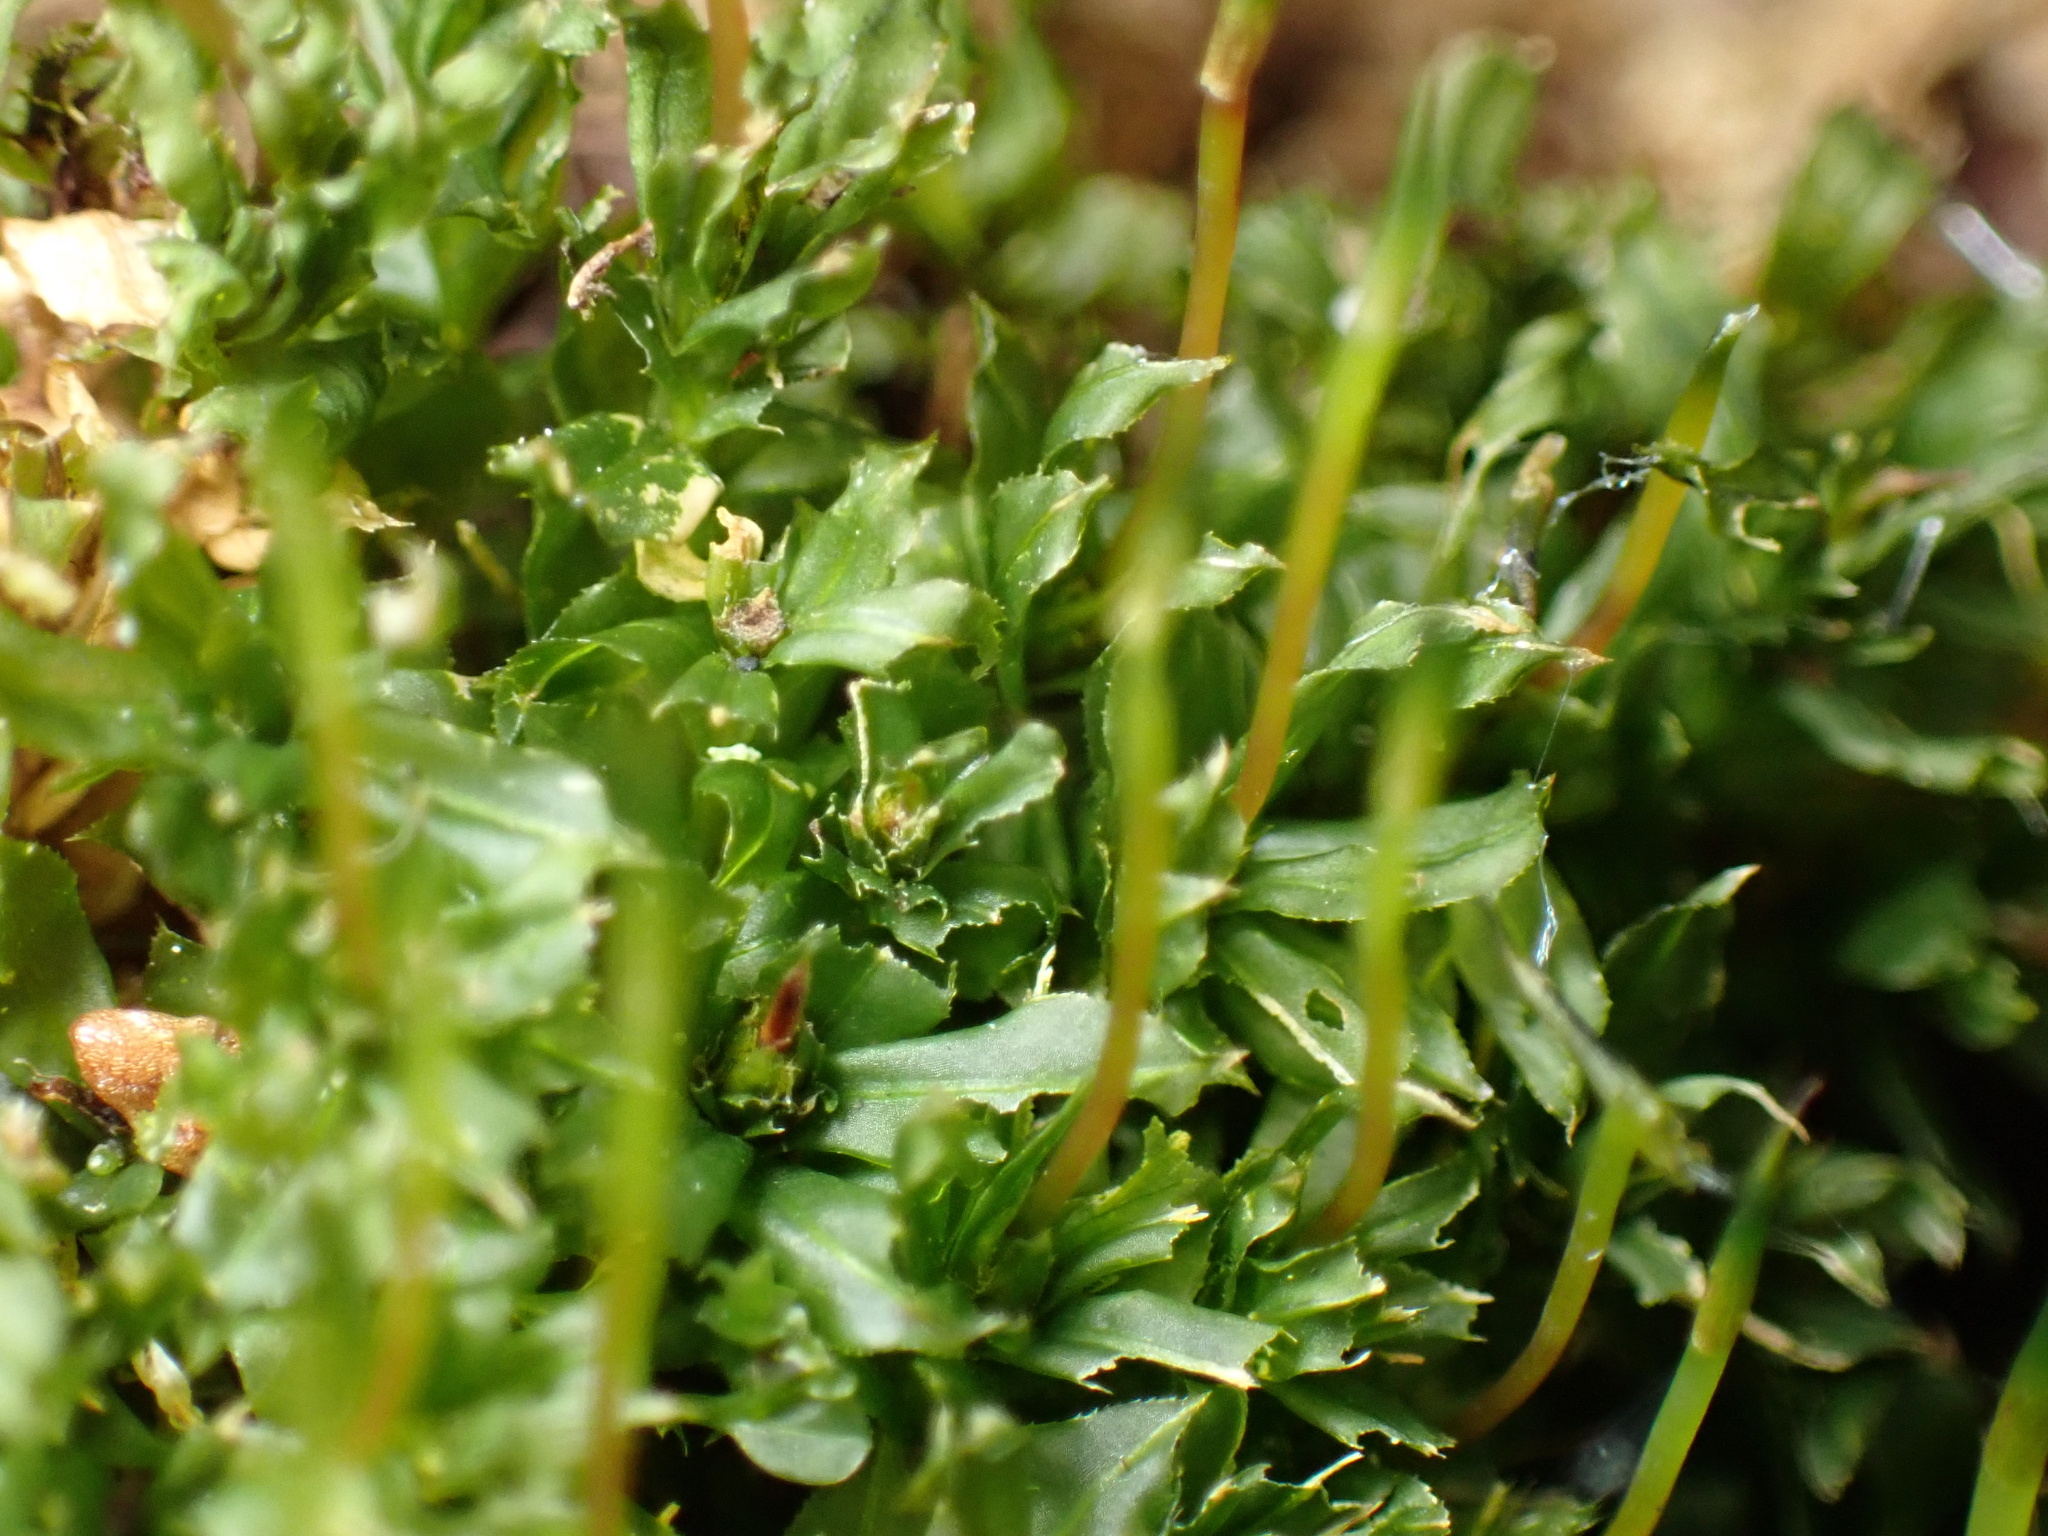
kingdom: Plantae
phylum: Bryophyta
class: Bryopsida
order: Bryales
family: Mniaceae
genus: Plagiomnium
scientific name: Plagiomnium cuspidatum
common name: Woodsy leafy moss
